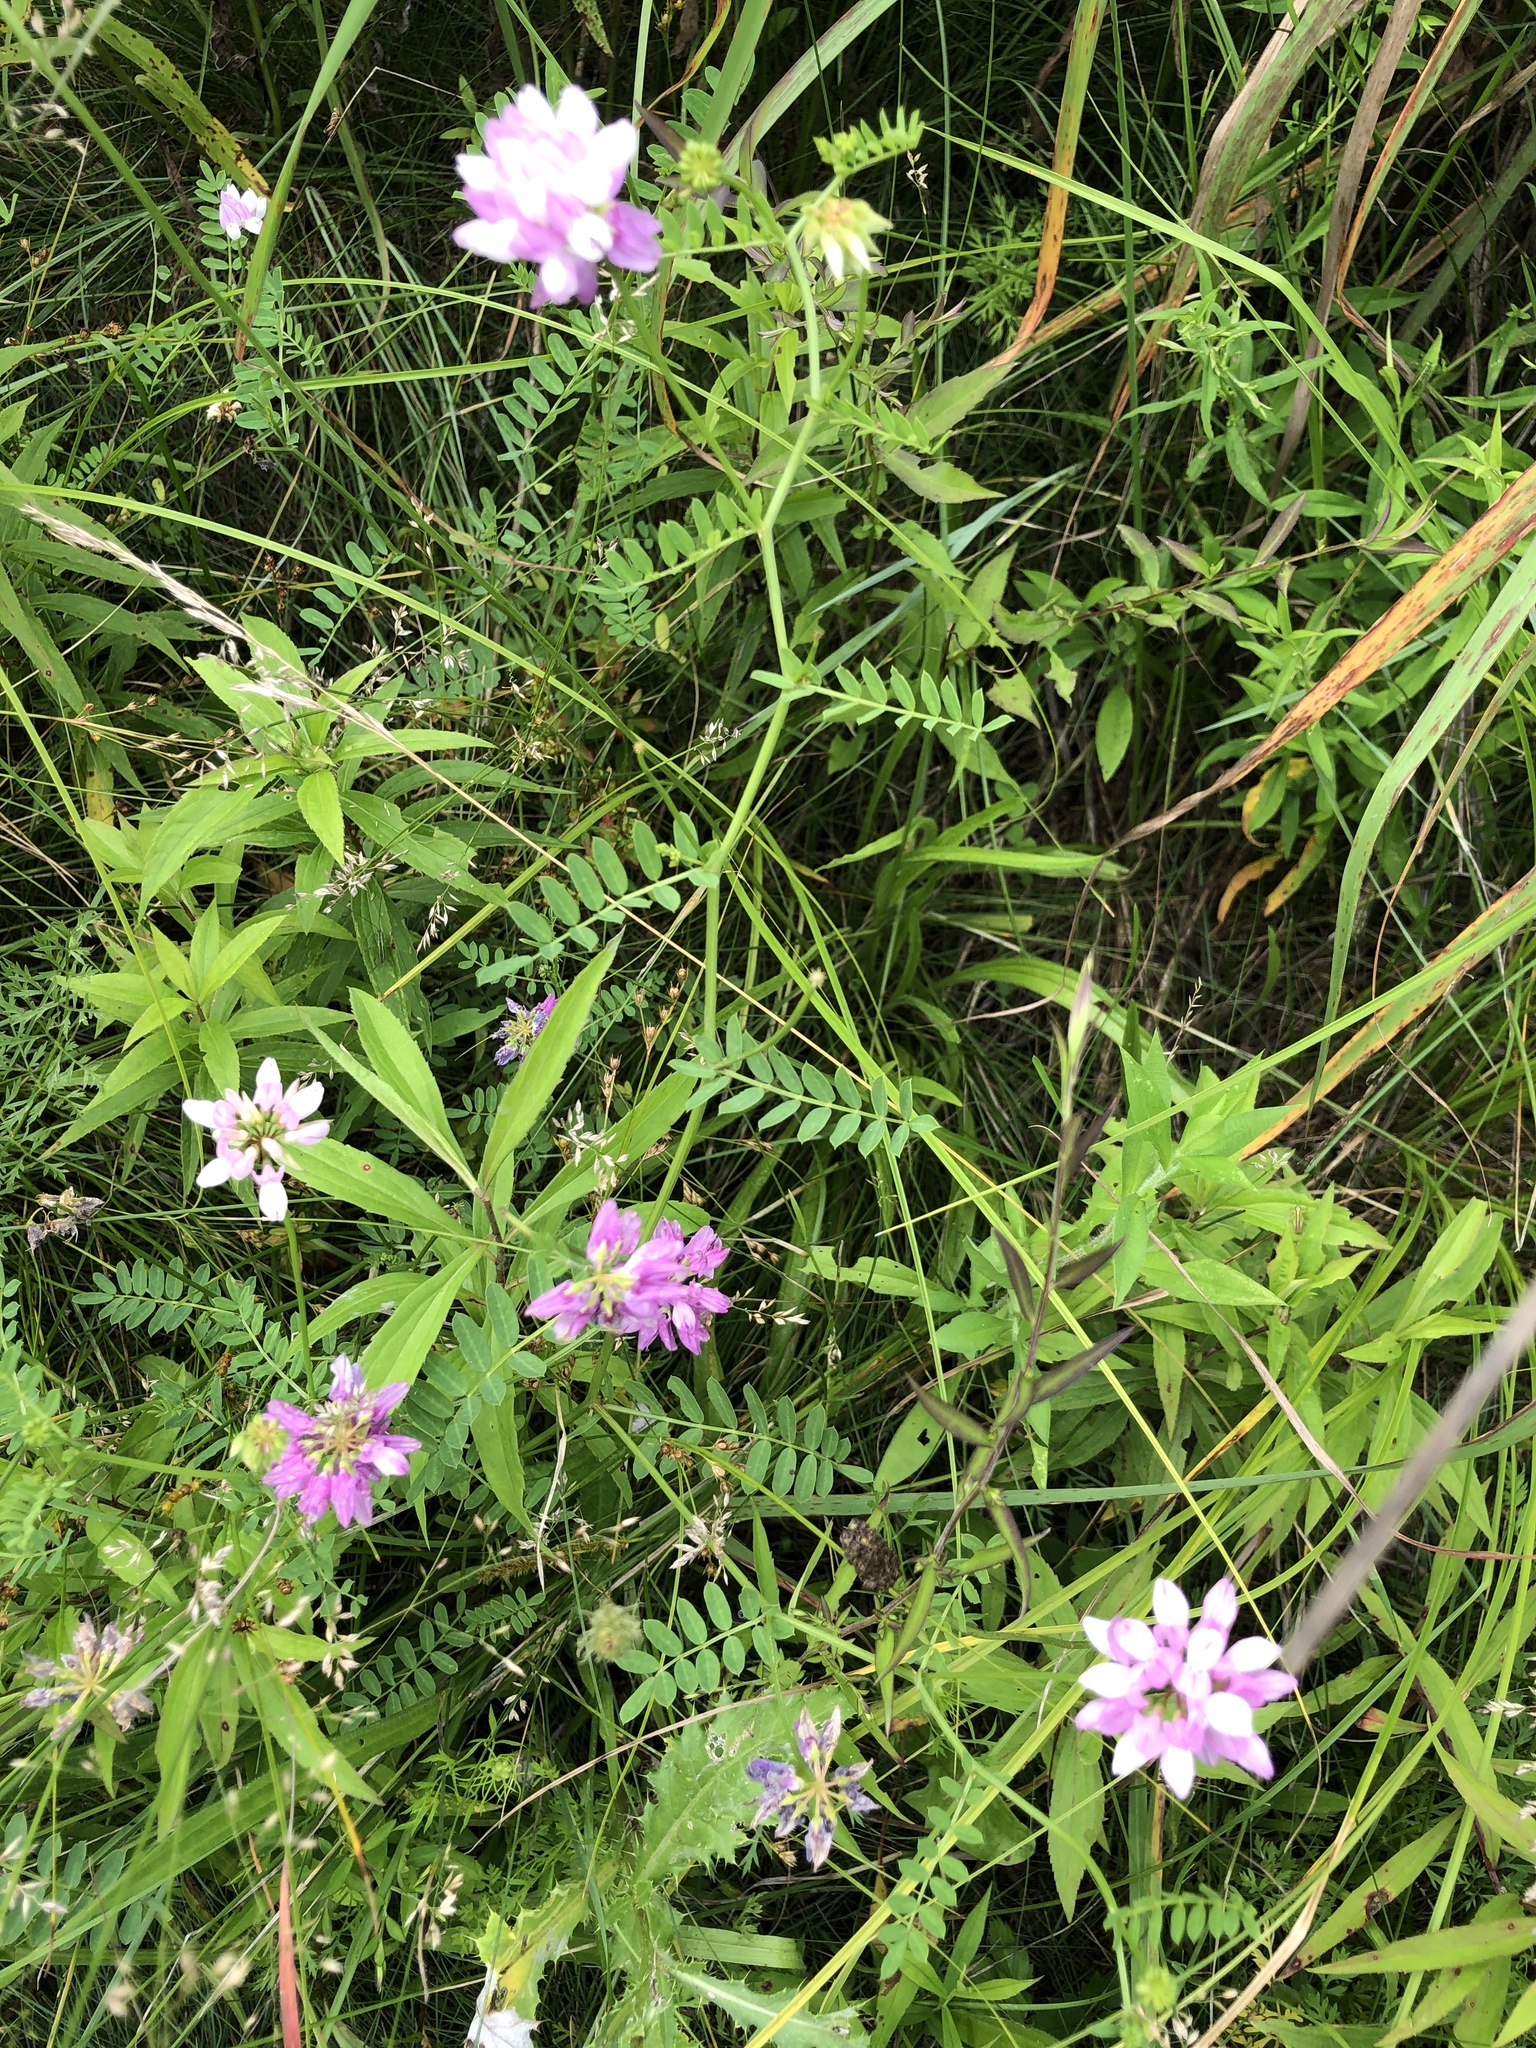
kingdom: Plantae
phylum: Tracheophyta
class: Magnoliopsida
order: Fabales
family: Fabaceae
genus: Coronilla
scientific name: Coronilla varia
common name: Crownvetch
